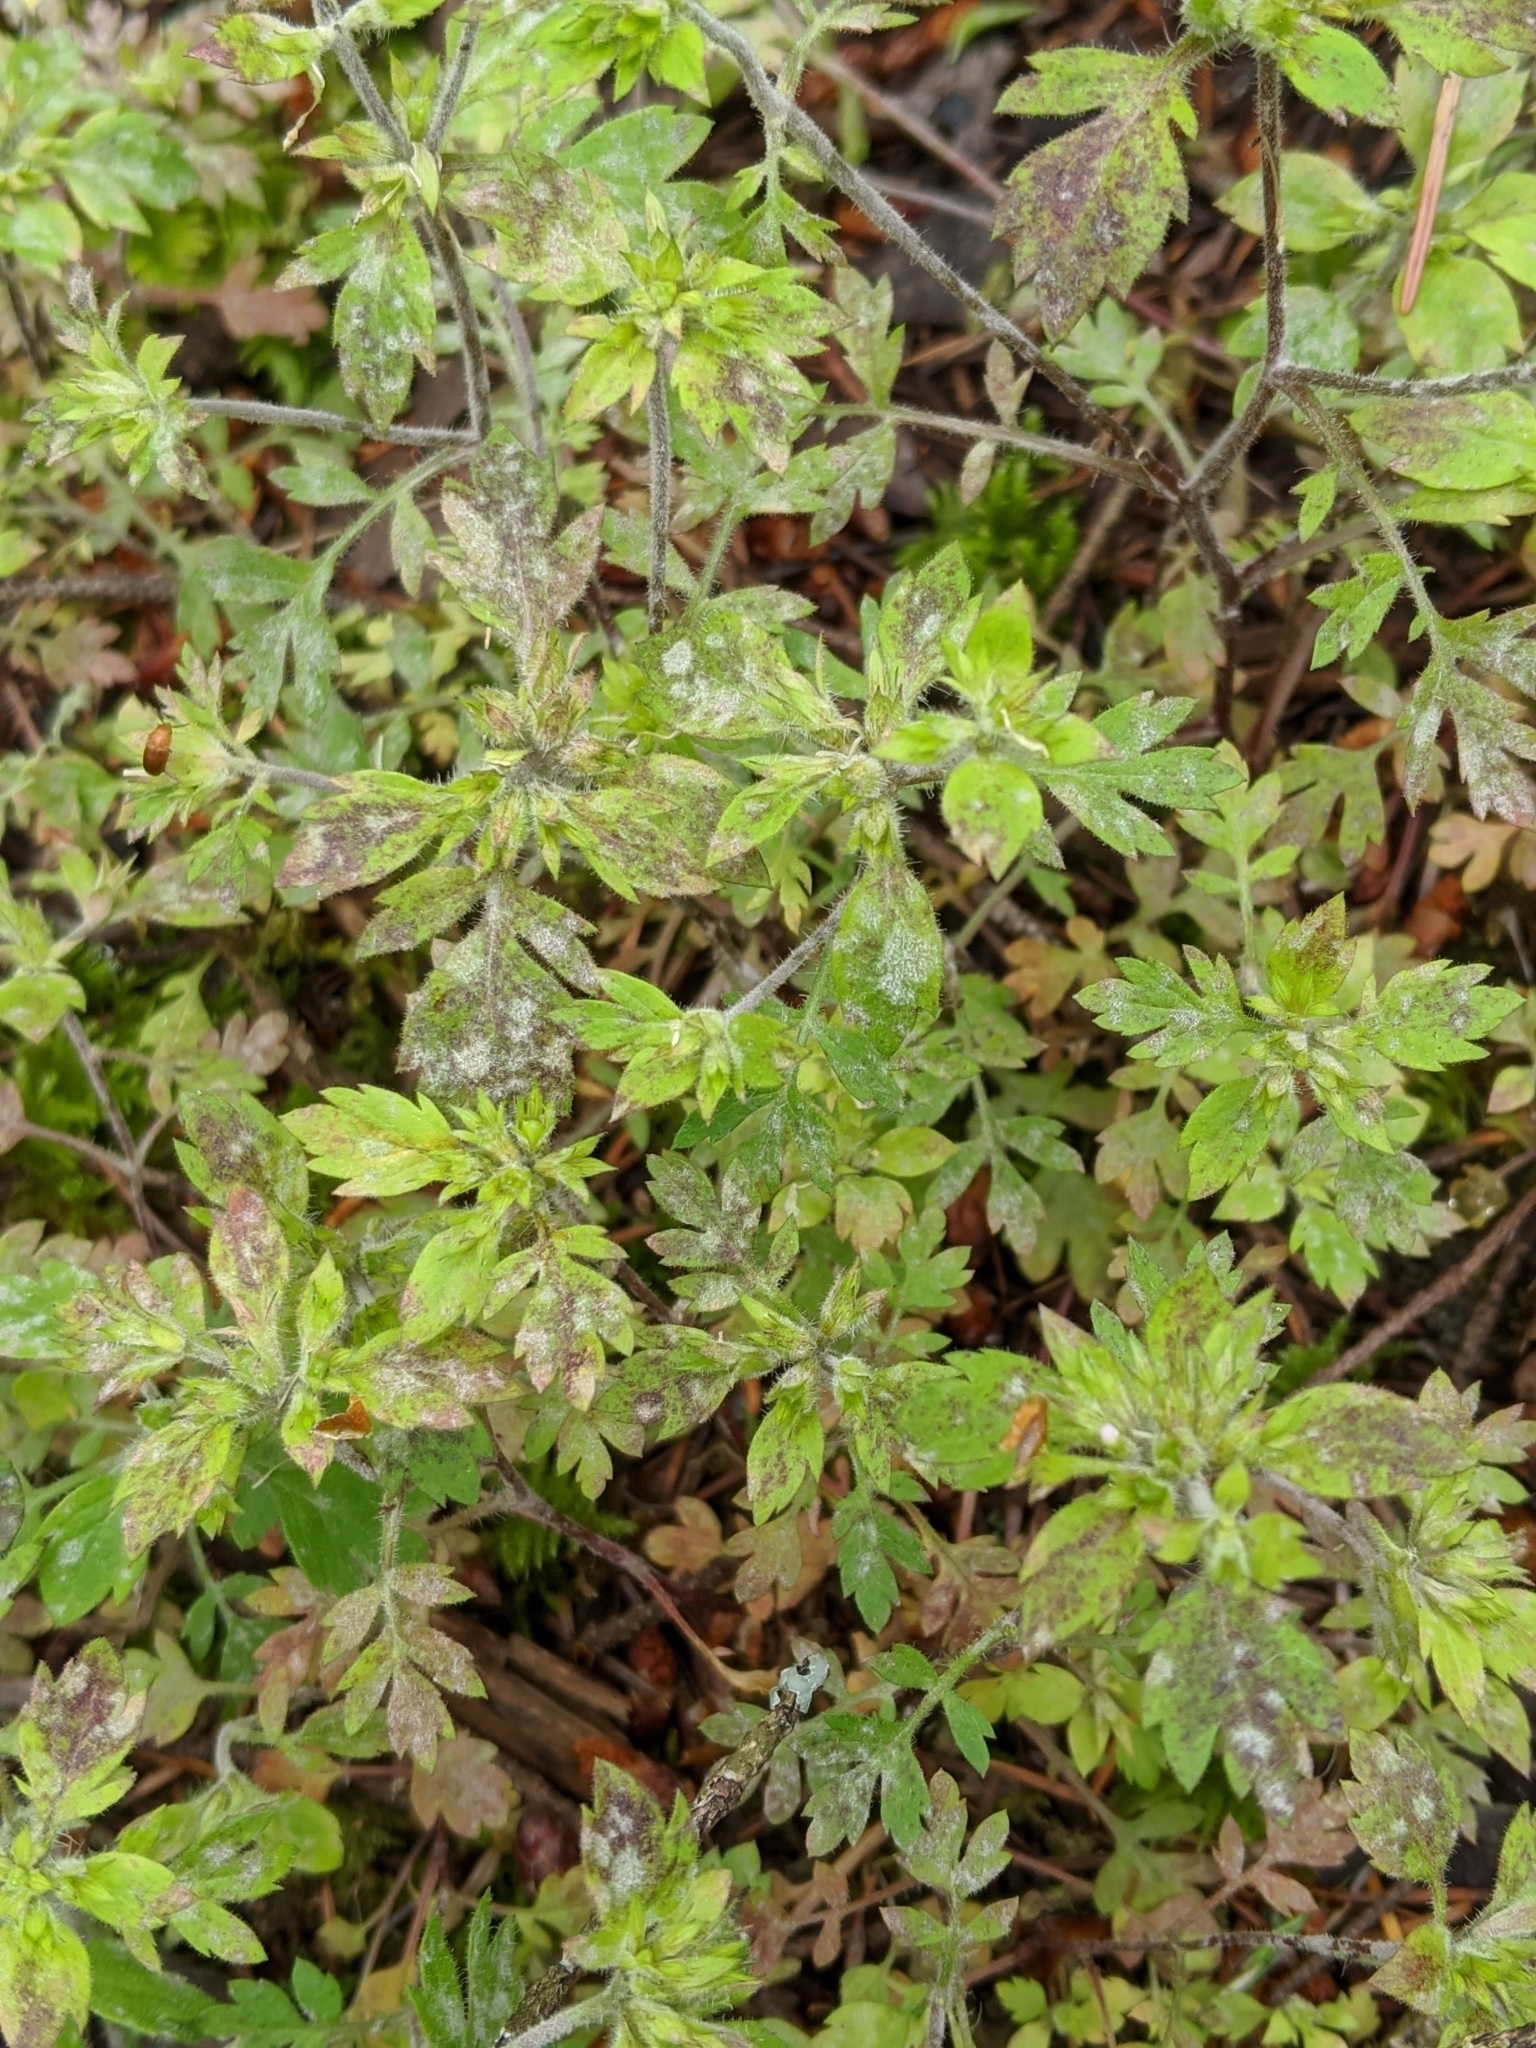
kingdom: Plantae
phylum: Tracheophyta
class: Magnoliopsida
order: Ericales
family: Polemoniaceae
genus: Collomia
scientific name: Collomia heterophylla
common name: Variable-leaved collomia
